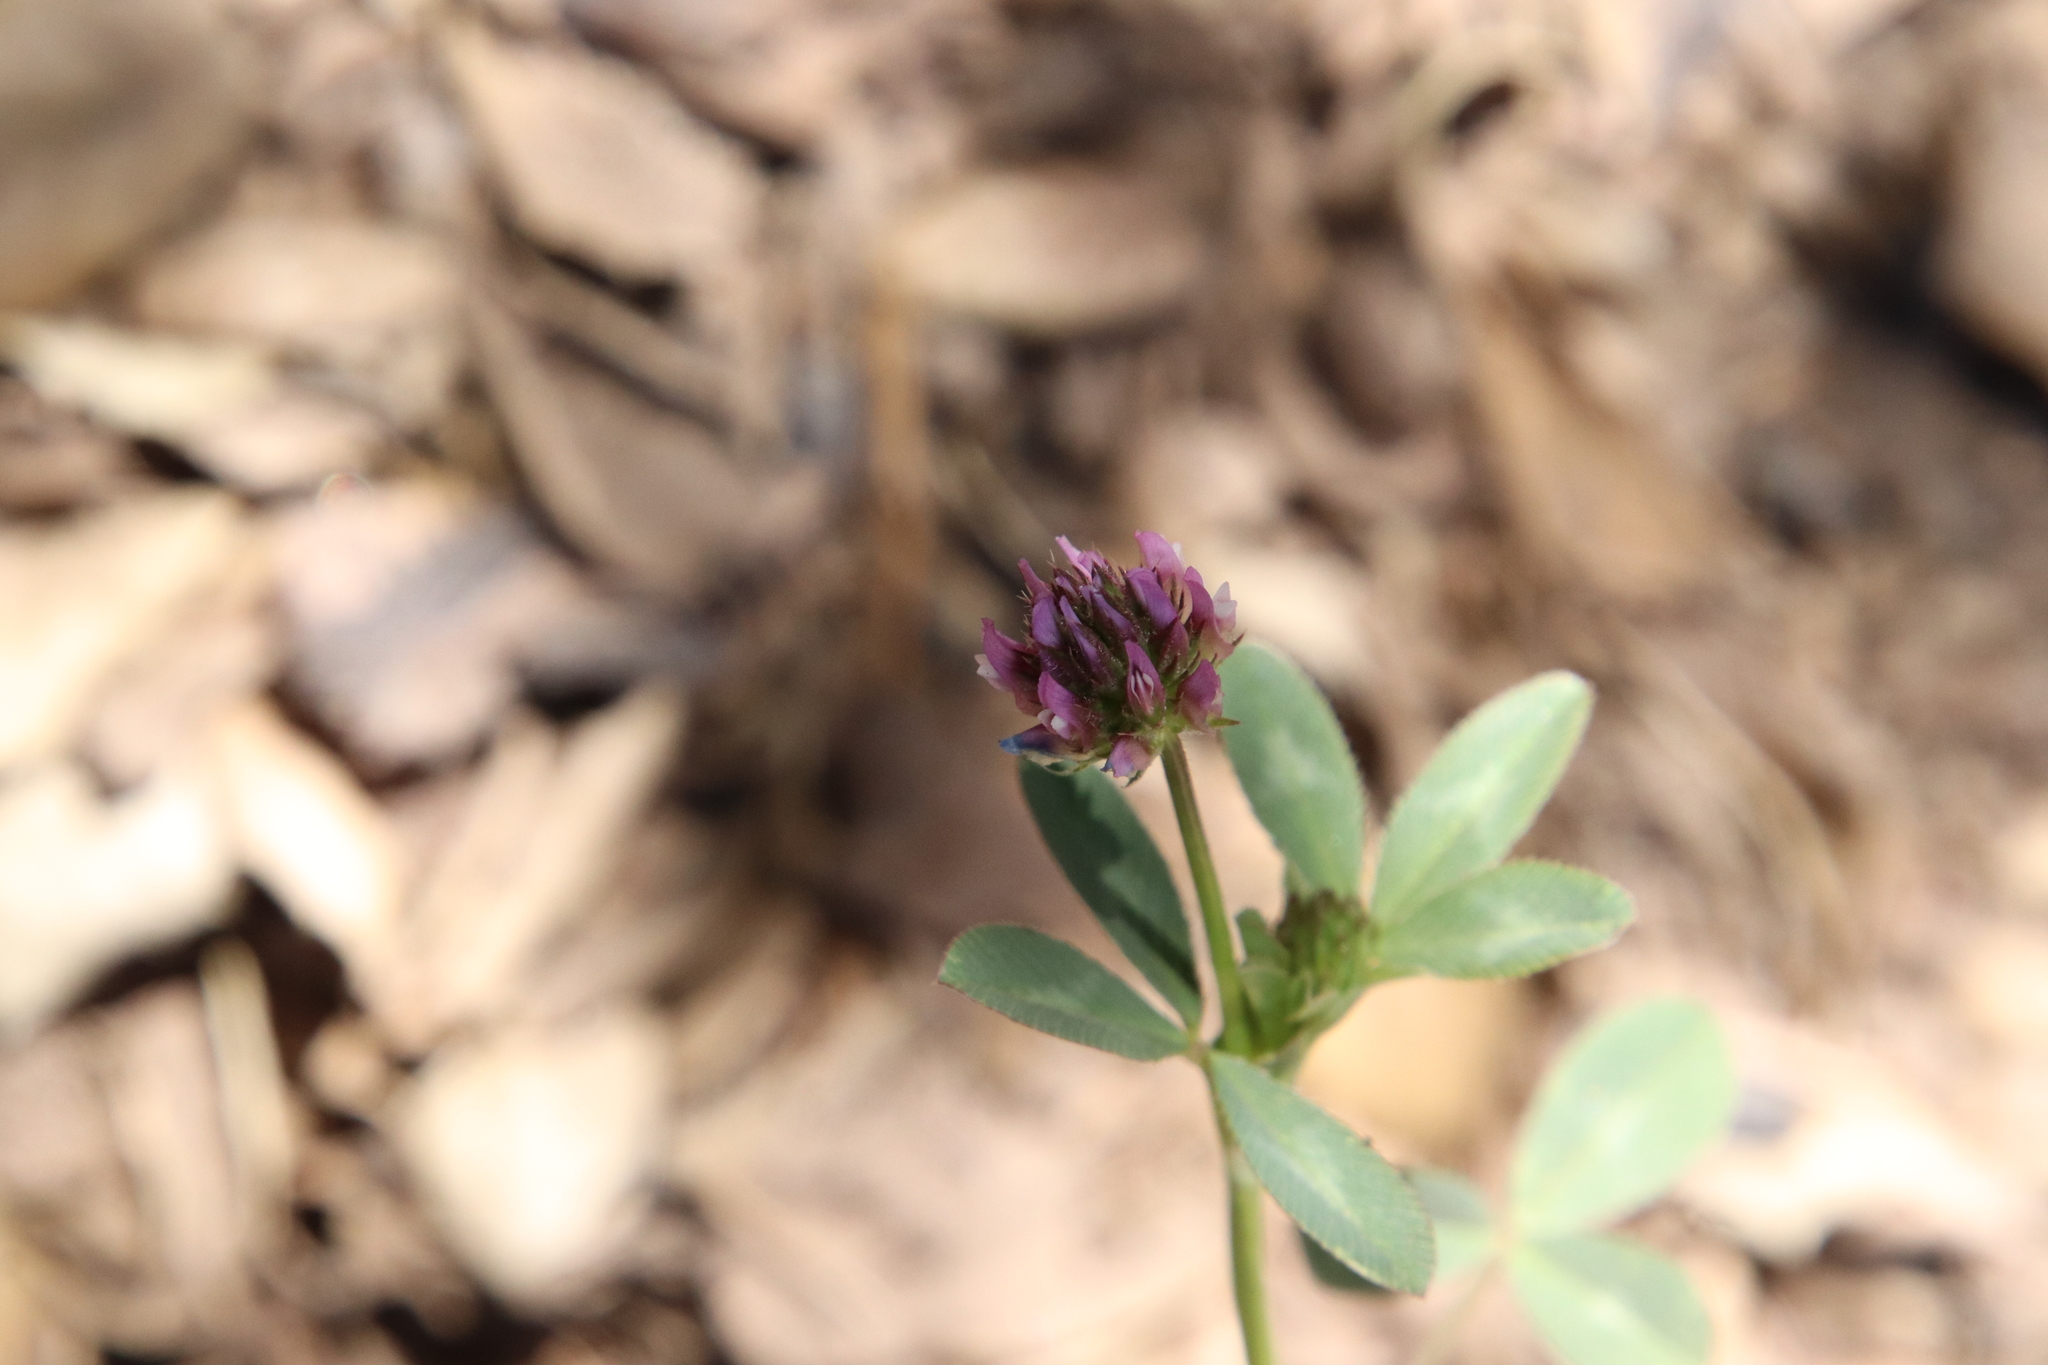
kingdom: Plantae
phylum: Tracheophyta
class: Magnoliopsida
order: Fabales
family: Fabaceae
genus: Trifolium
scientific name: Trifolium ciliolatum
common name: Foothill clover
